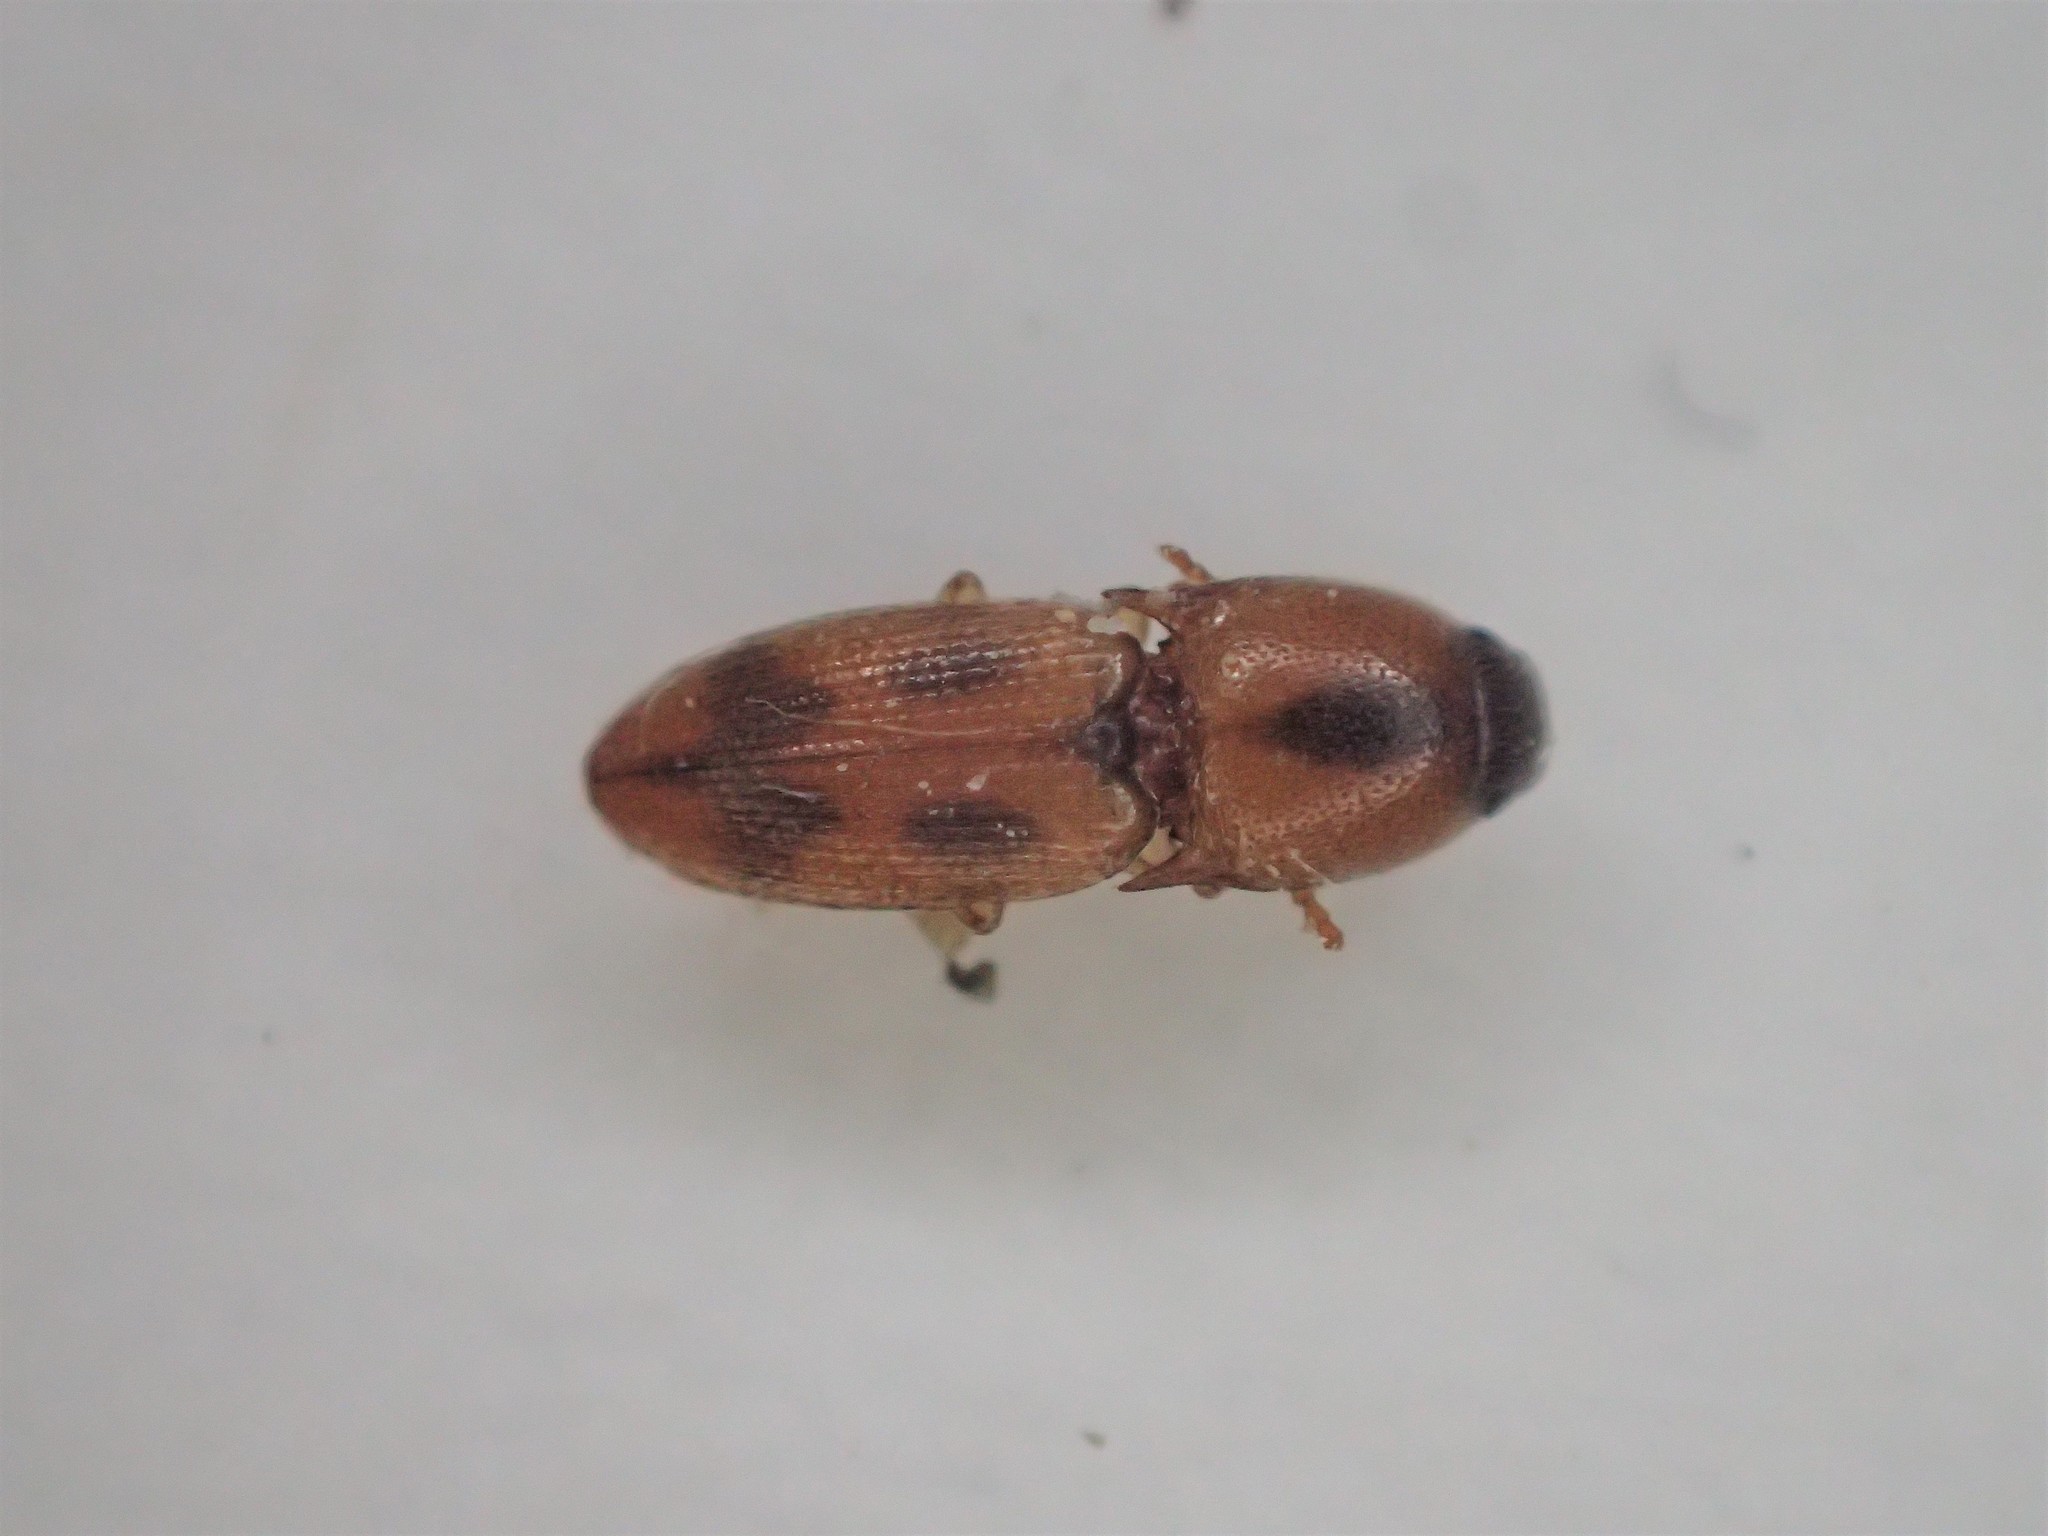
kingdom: Animalia
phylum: Arthropoda
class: Insecta
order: Coleoptera
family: Elateridae
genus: Aeolus
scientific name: Aeolus mellillus
